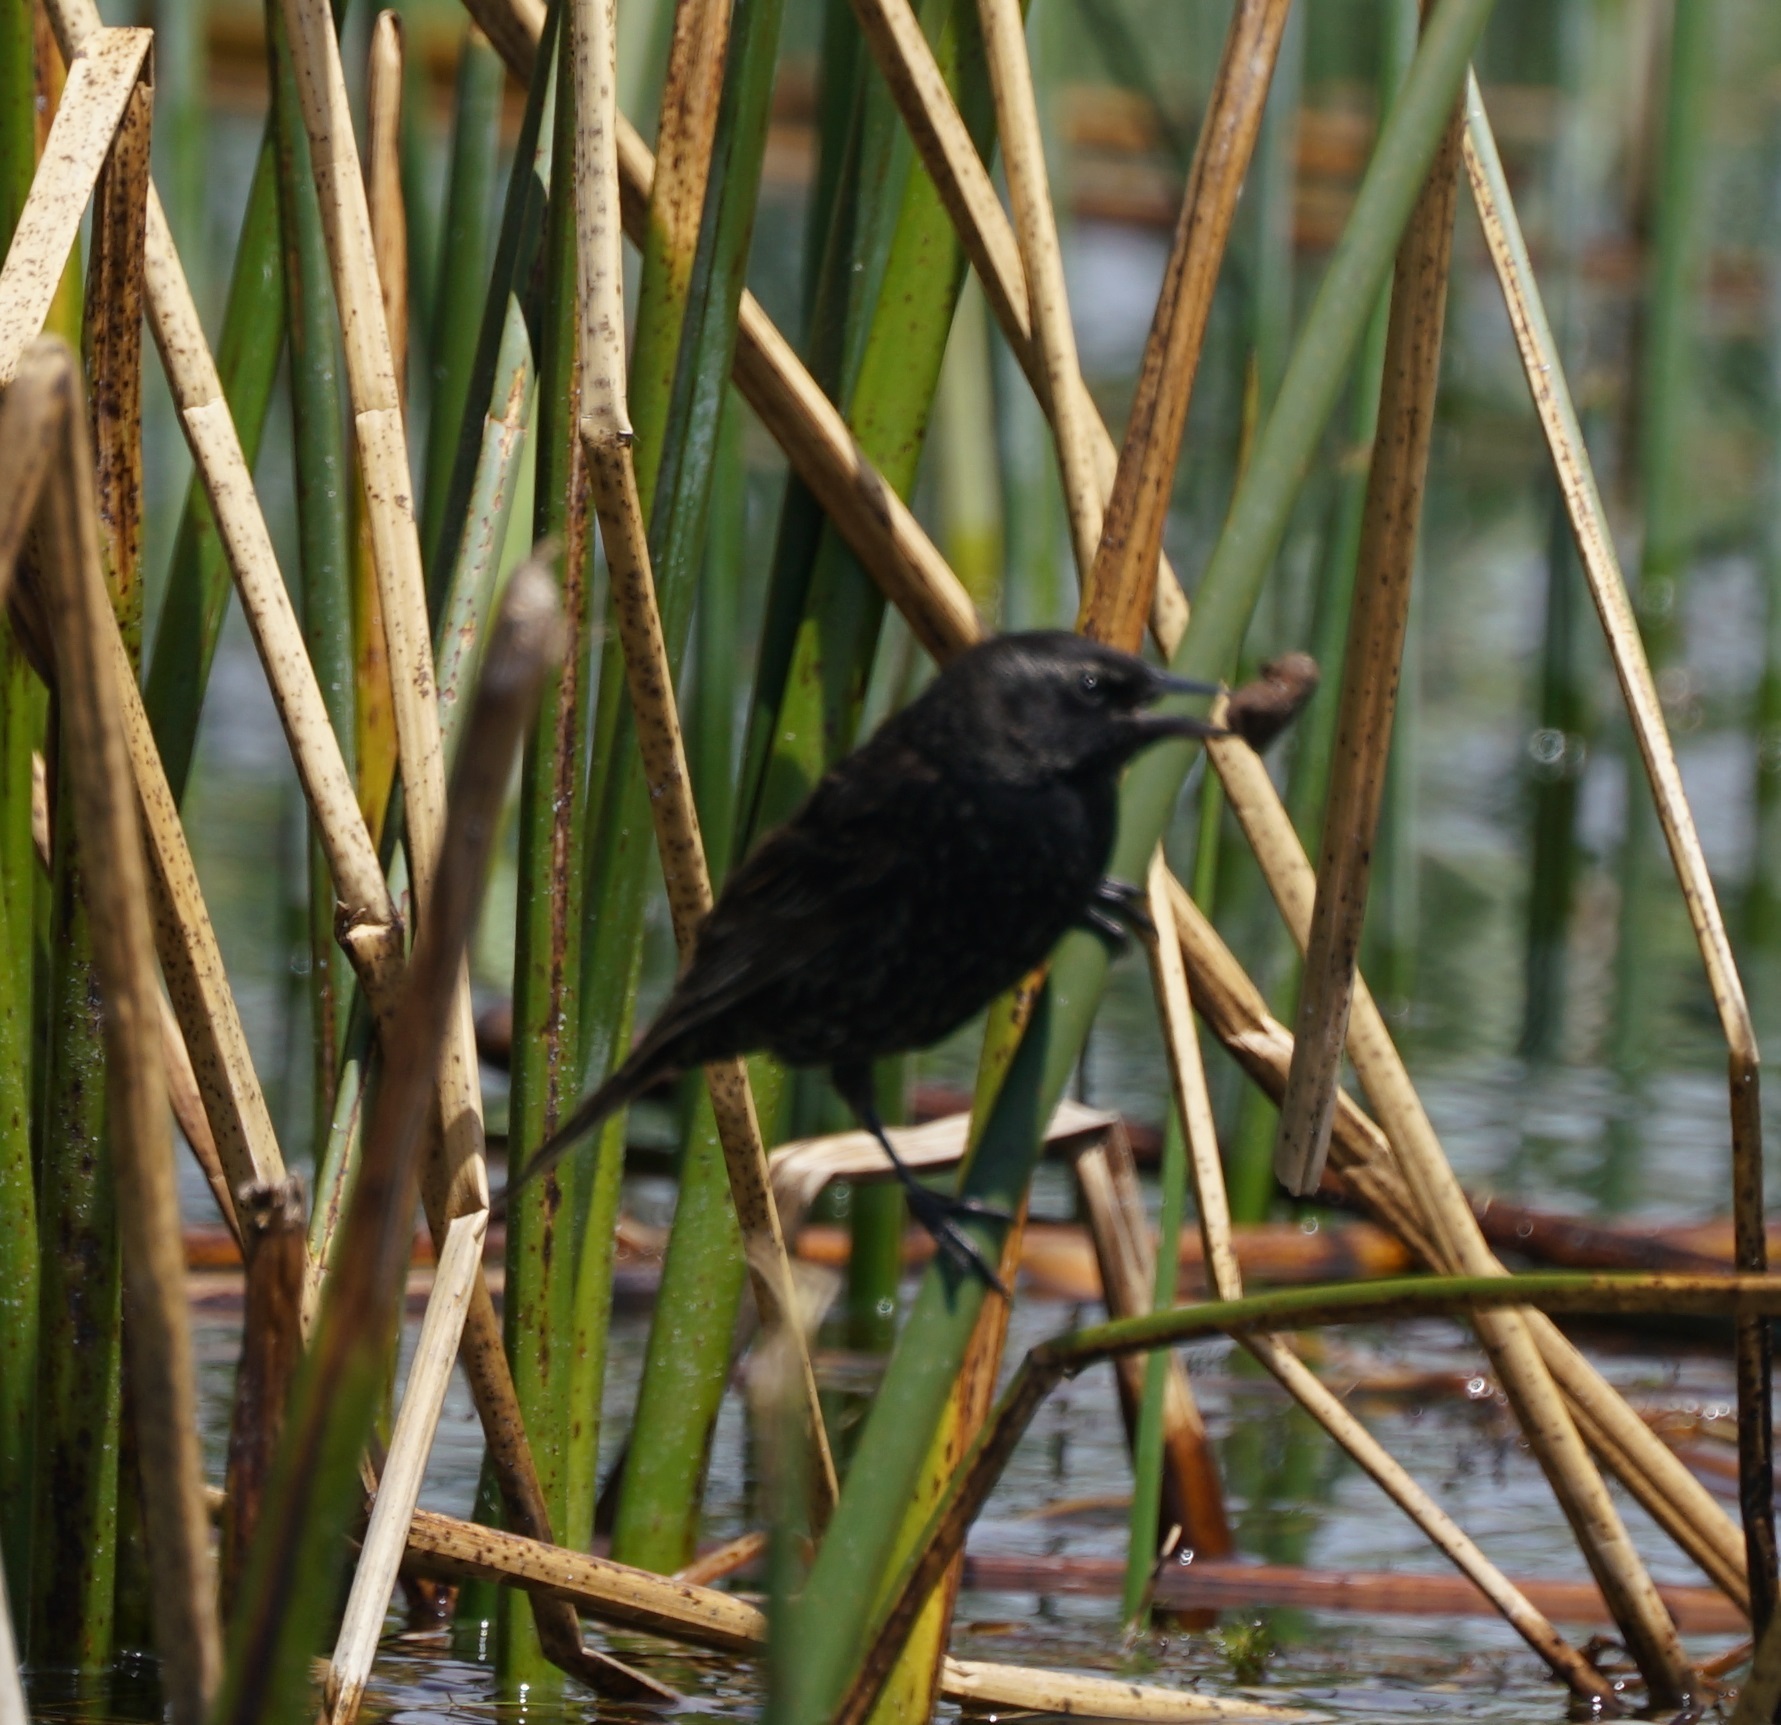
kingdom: Animalia
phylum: Chordata
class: Aves
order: Passeriformes
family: Icteridae
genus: Agelasticus
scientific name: Agelasticus thilius
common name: Yellow-winged blackbird
